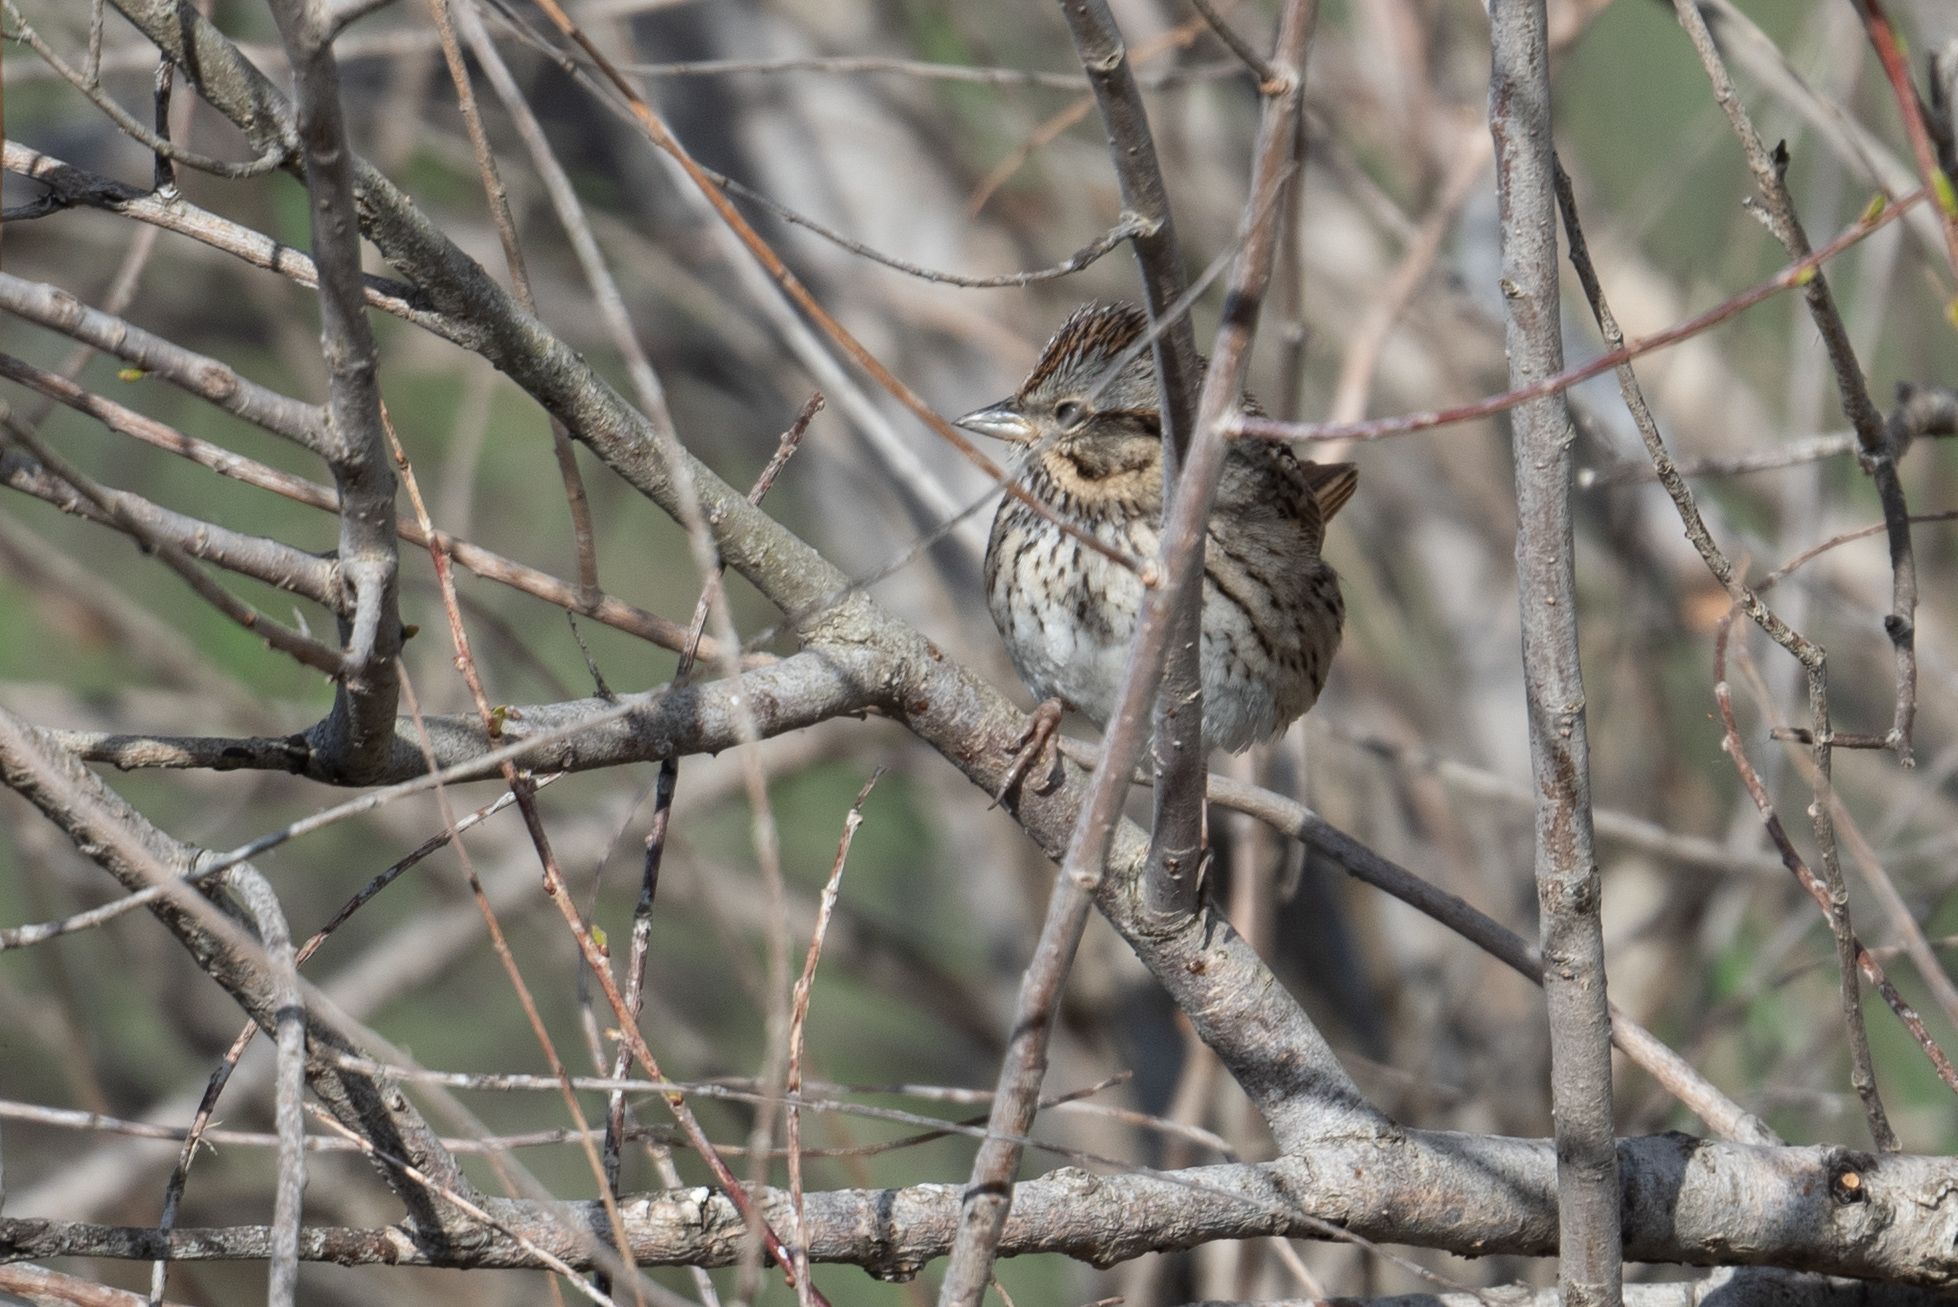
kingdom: Animalia
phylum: Chordata
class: Aves
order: Passeriformes
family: Passerellidae
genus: Melospiza
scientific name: Melospiza lincolnii
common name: Lincoln's sparrow
